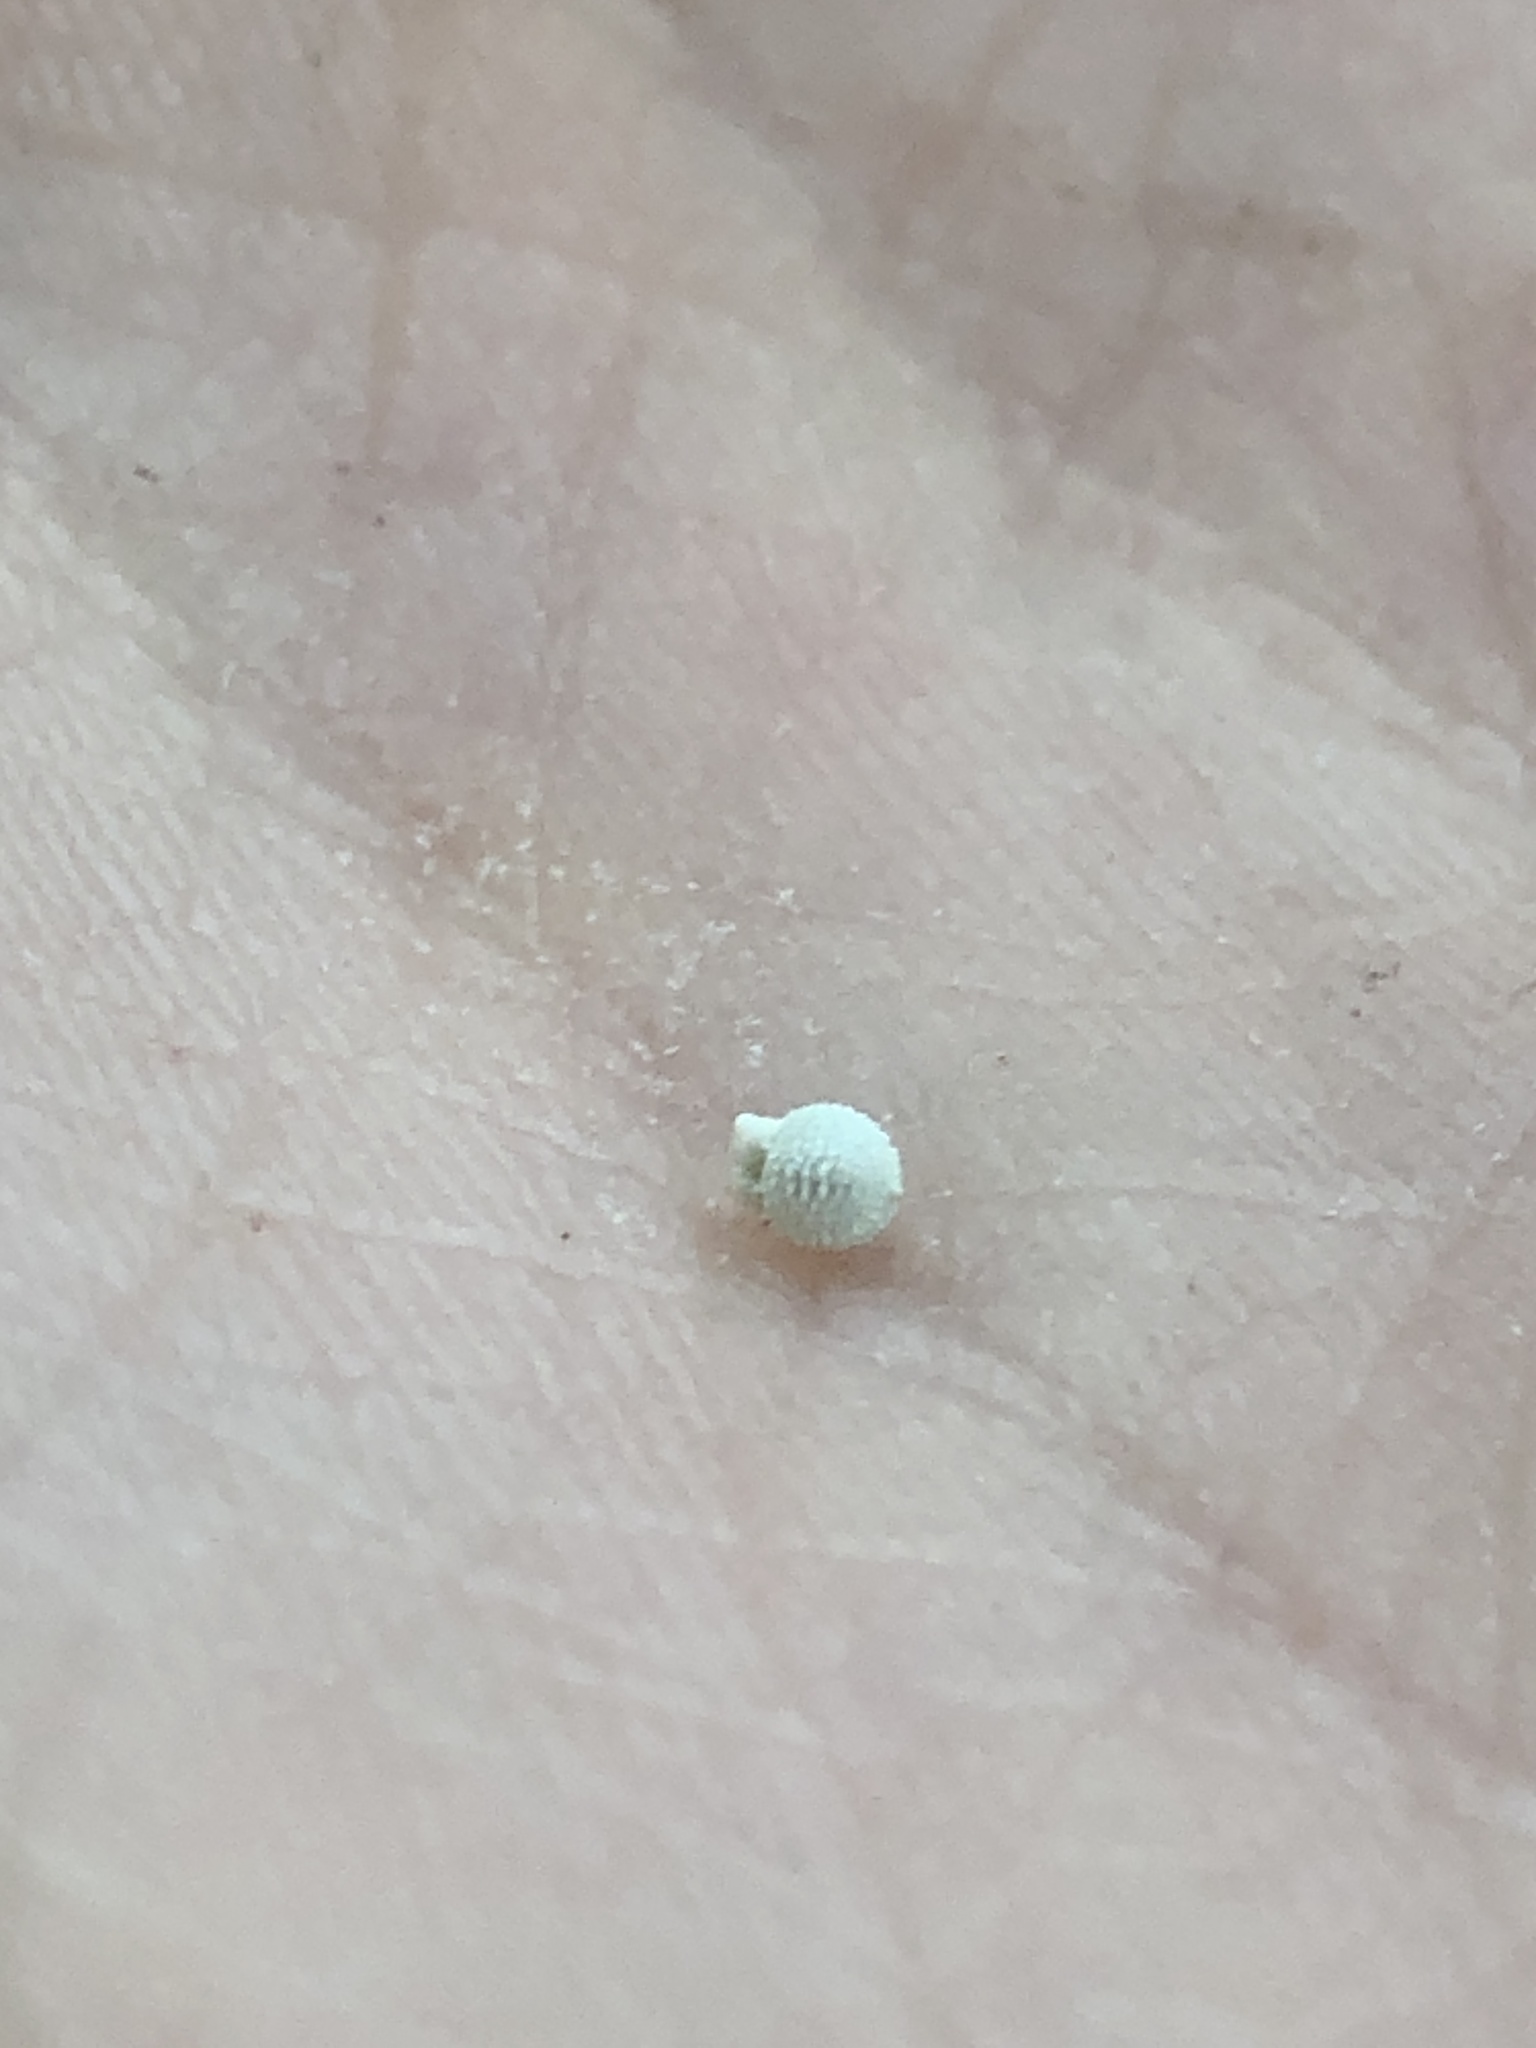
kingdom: Plantae
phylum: Tracheophyta
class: Liliopsida
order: Poales
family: Cyperaceae
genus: Scleria
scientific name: Scleria pauciflora
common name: Few-flowered nutrush
